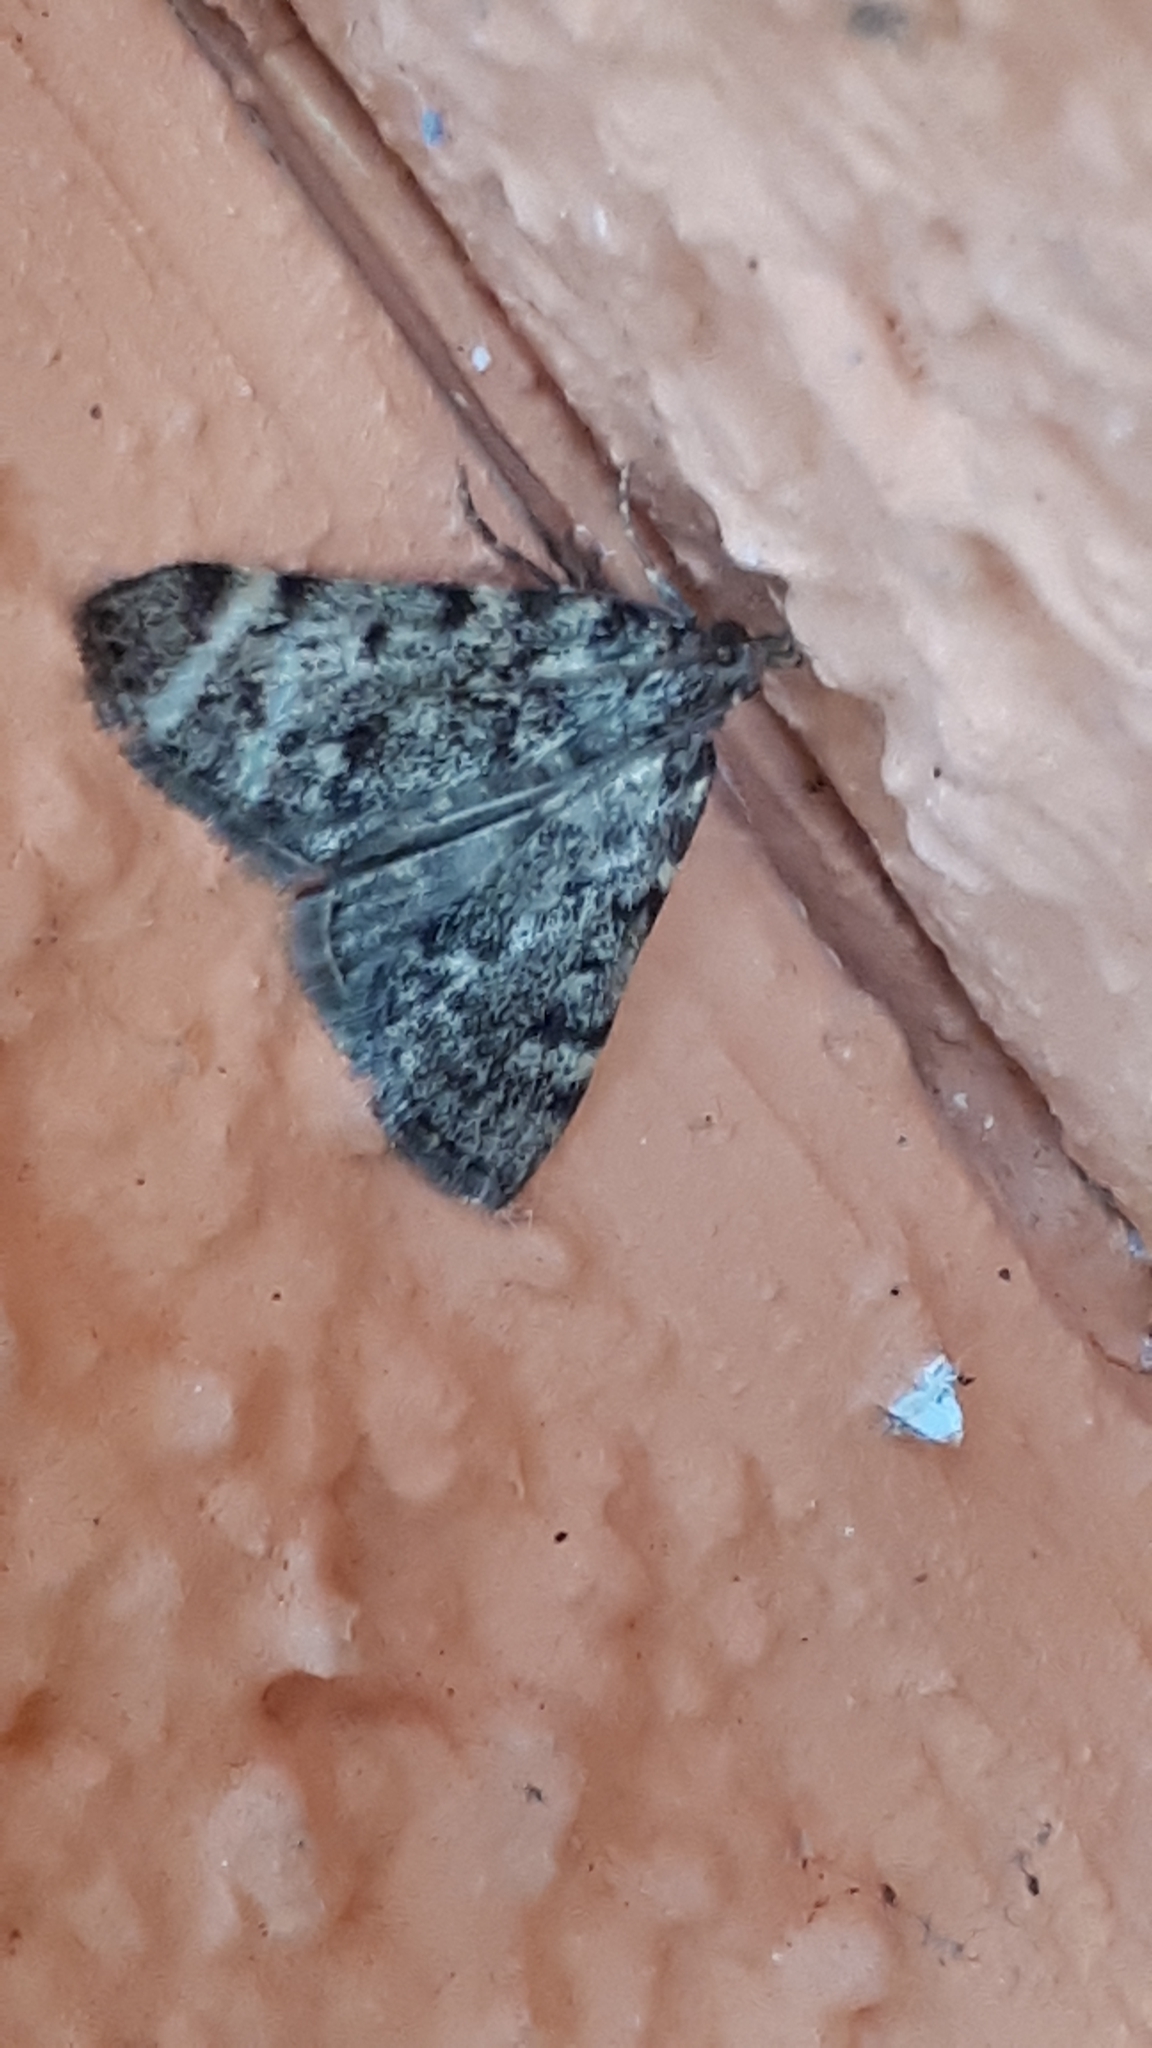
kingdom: Animalia
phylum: Arthropoda
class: Insecta
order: Lepidoptera
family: Pyralidae
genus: Aglossa
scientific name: Aglossa pinguinalis
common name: Large tabby
